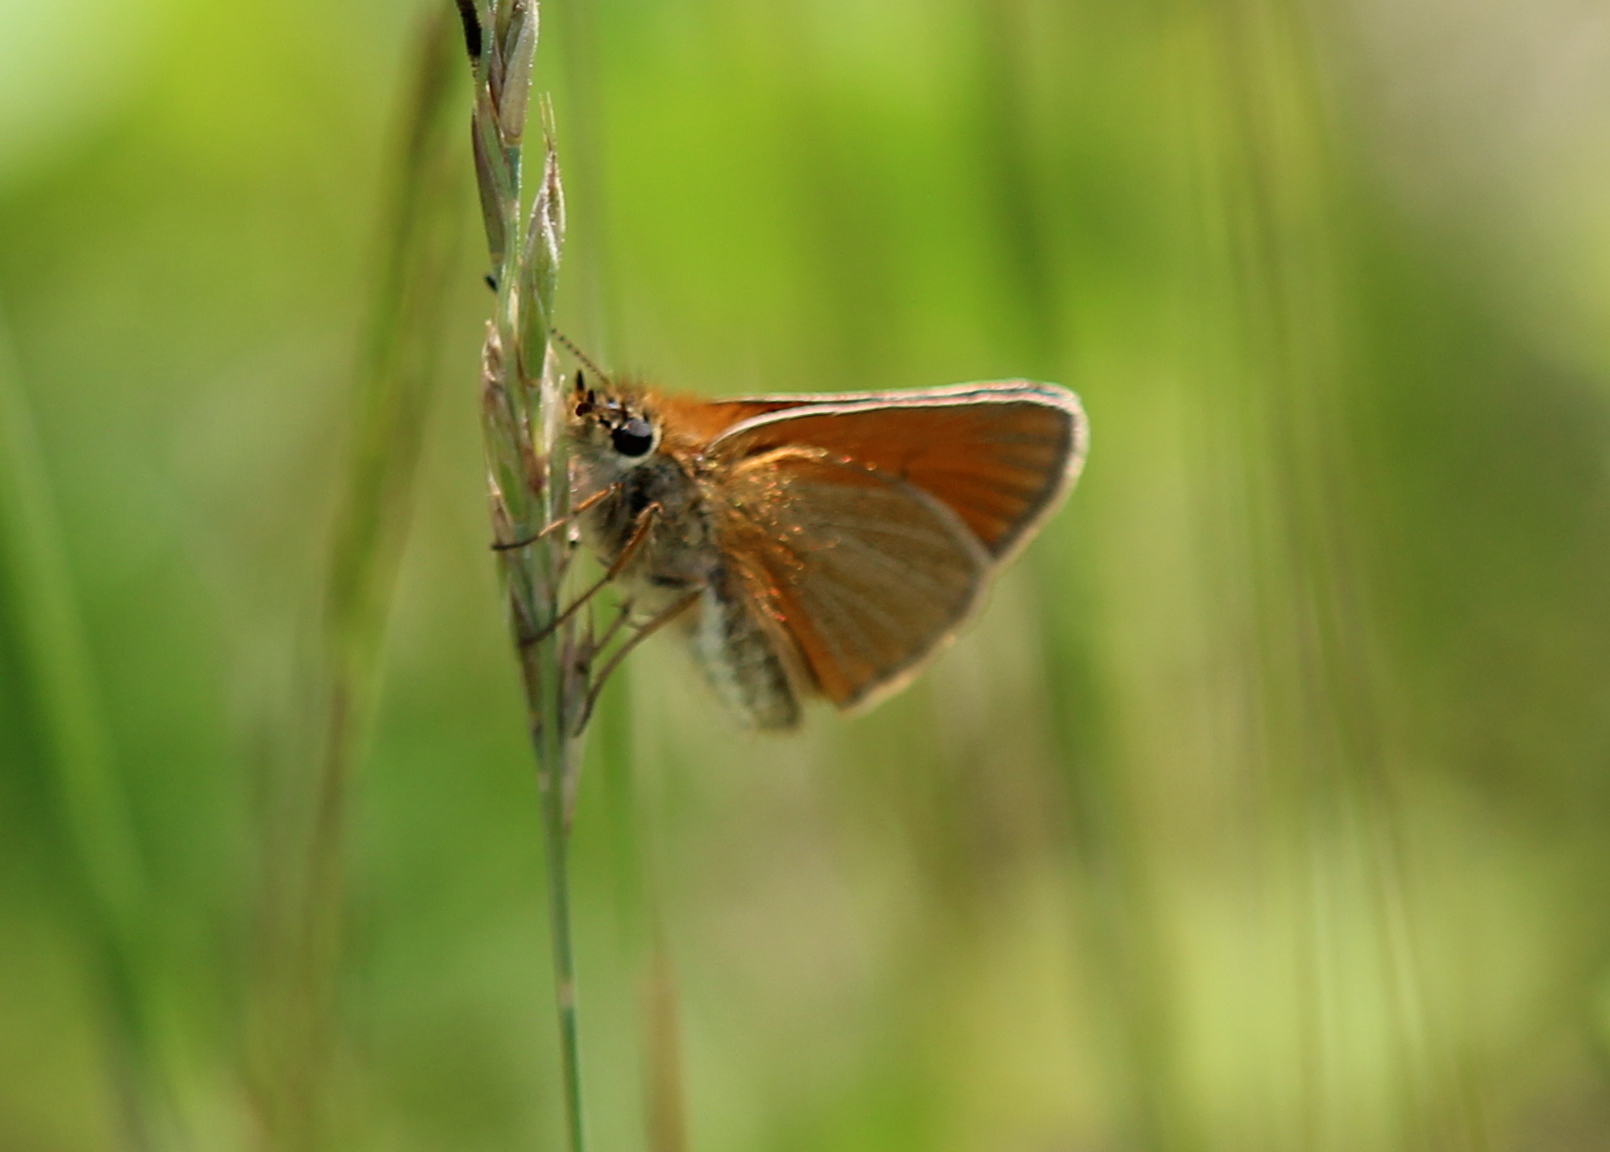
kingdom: Animalia
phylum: Arthropoda
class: Insecta
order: Lepidoptera
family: Hesperiidae
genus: Thymelicus
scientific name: Thymelicus lineola
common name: Essex skipper
